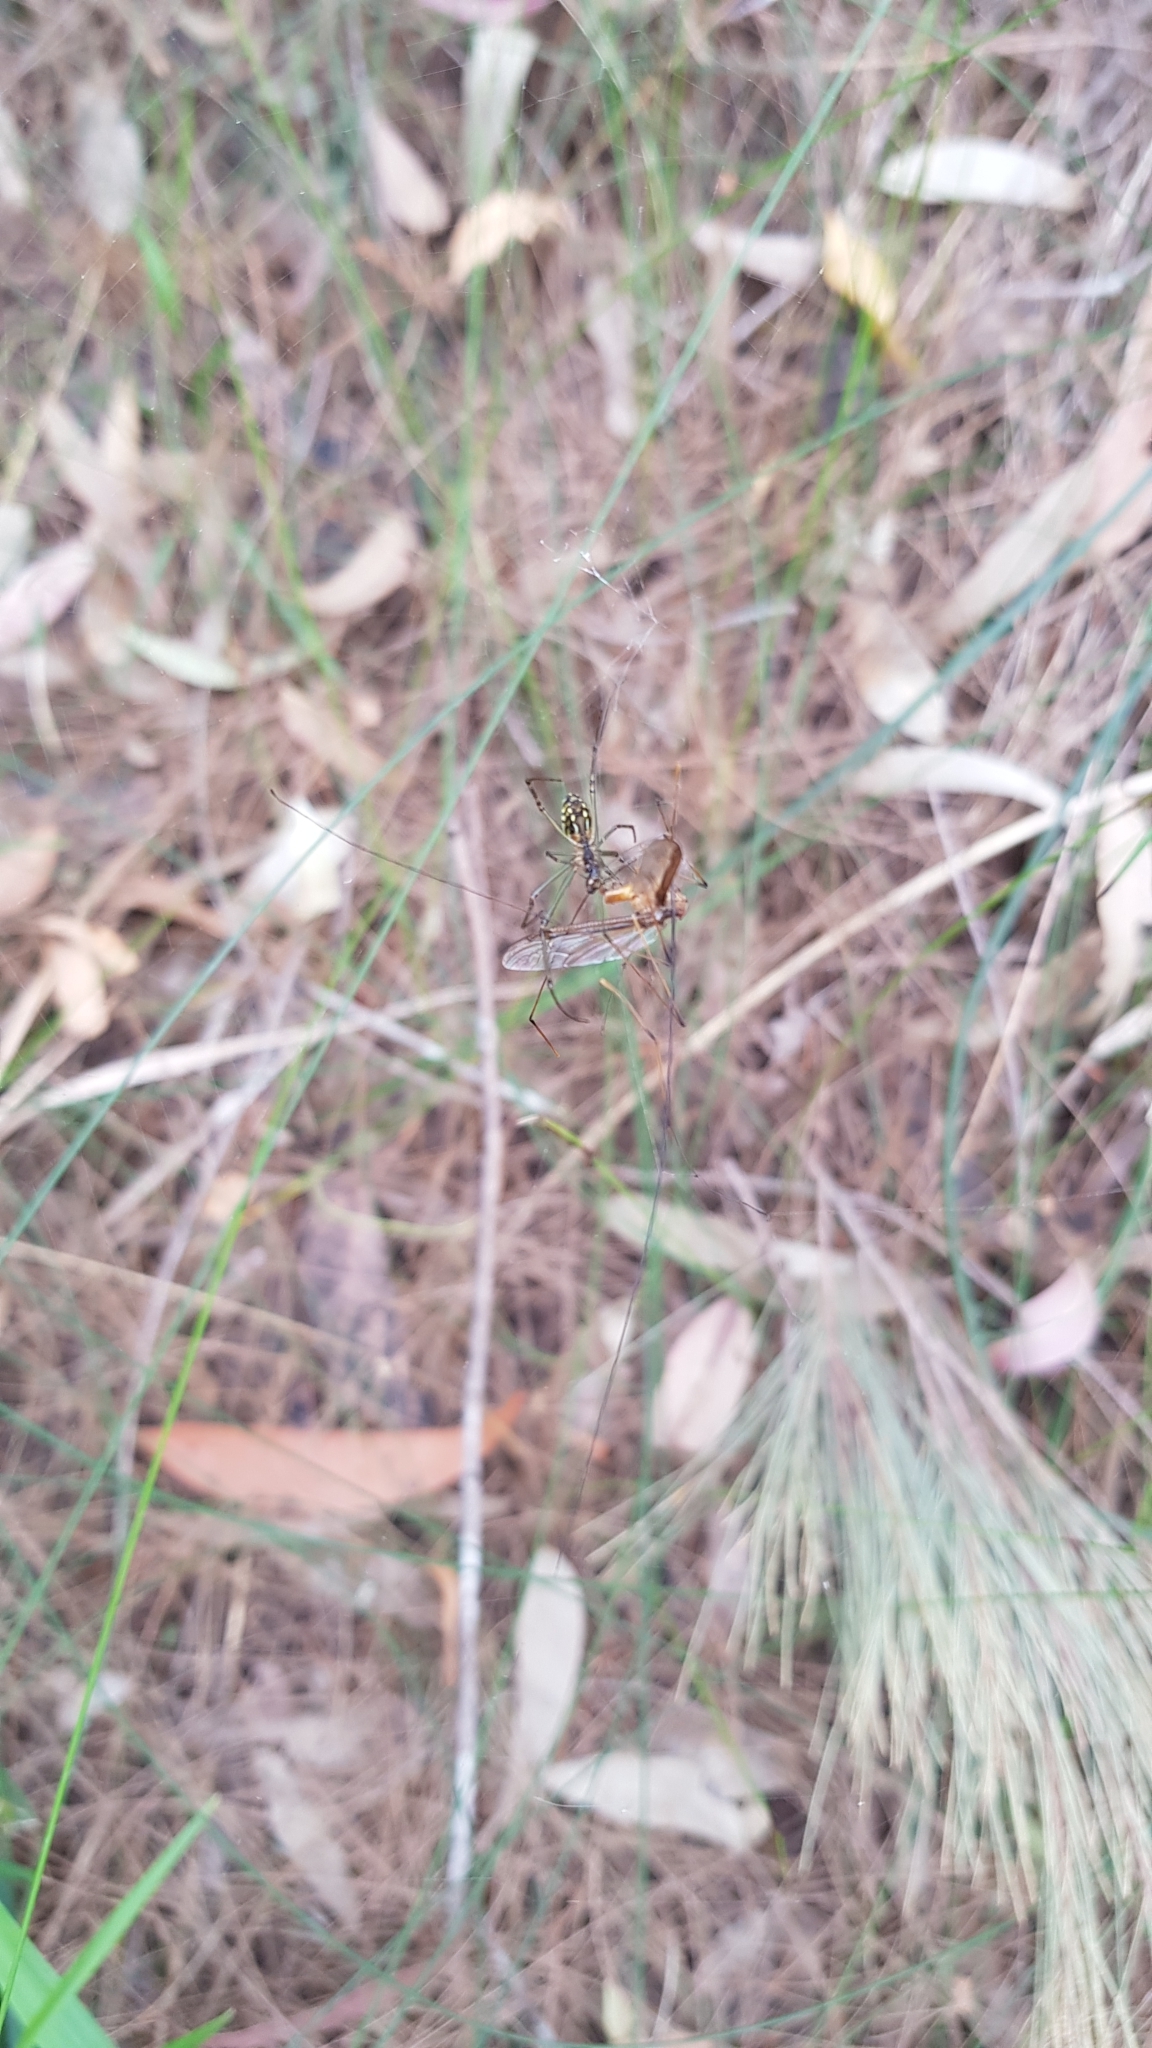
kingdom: Animalia
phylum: Arthropoda
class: Arachnida
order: Araneae
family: Tetragnathidae
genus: Leucauge
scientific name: Leucauge dromedaria
